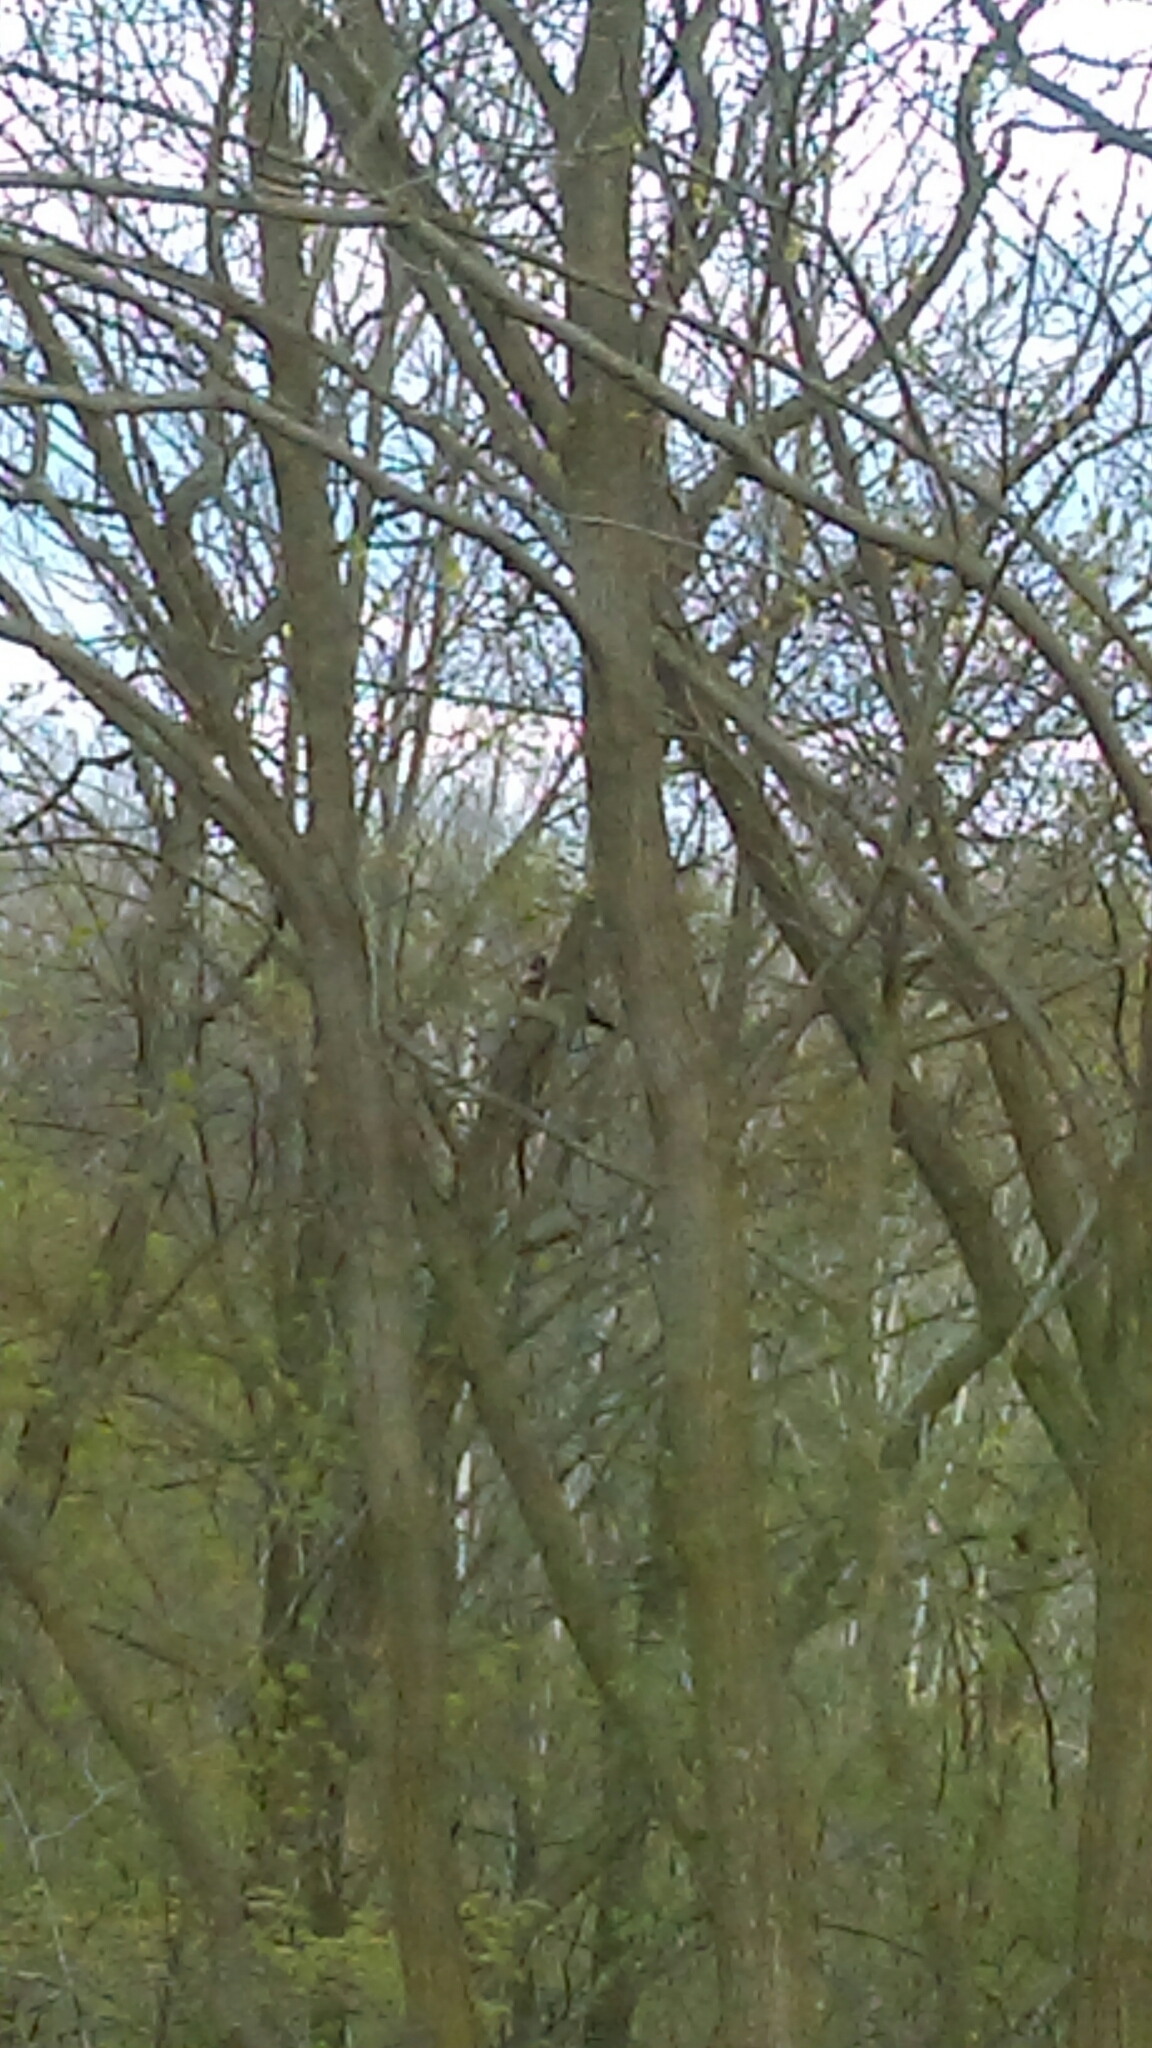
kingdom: Animalia
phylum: Chordata
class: Aves
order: Anseriformes
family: Anatidae
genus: Aix
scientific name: Aix sponsa
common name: Wood duck
